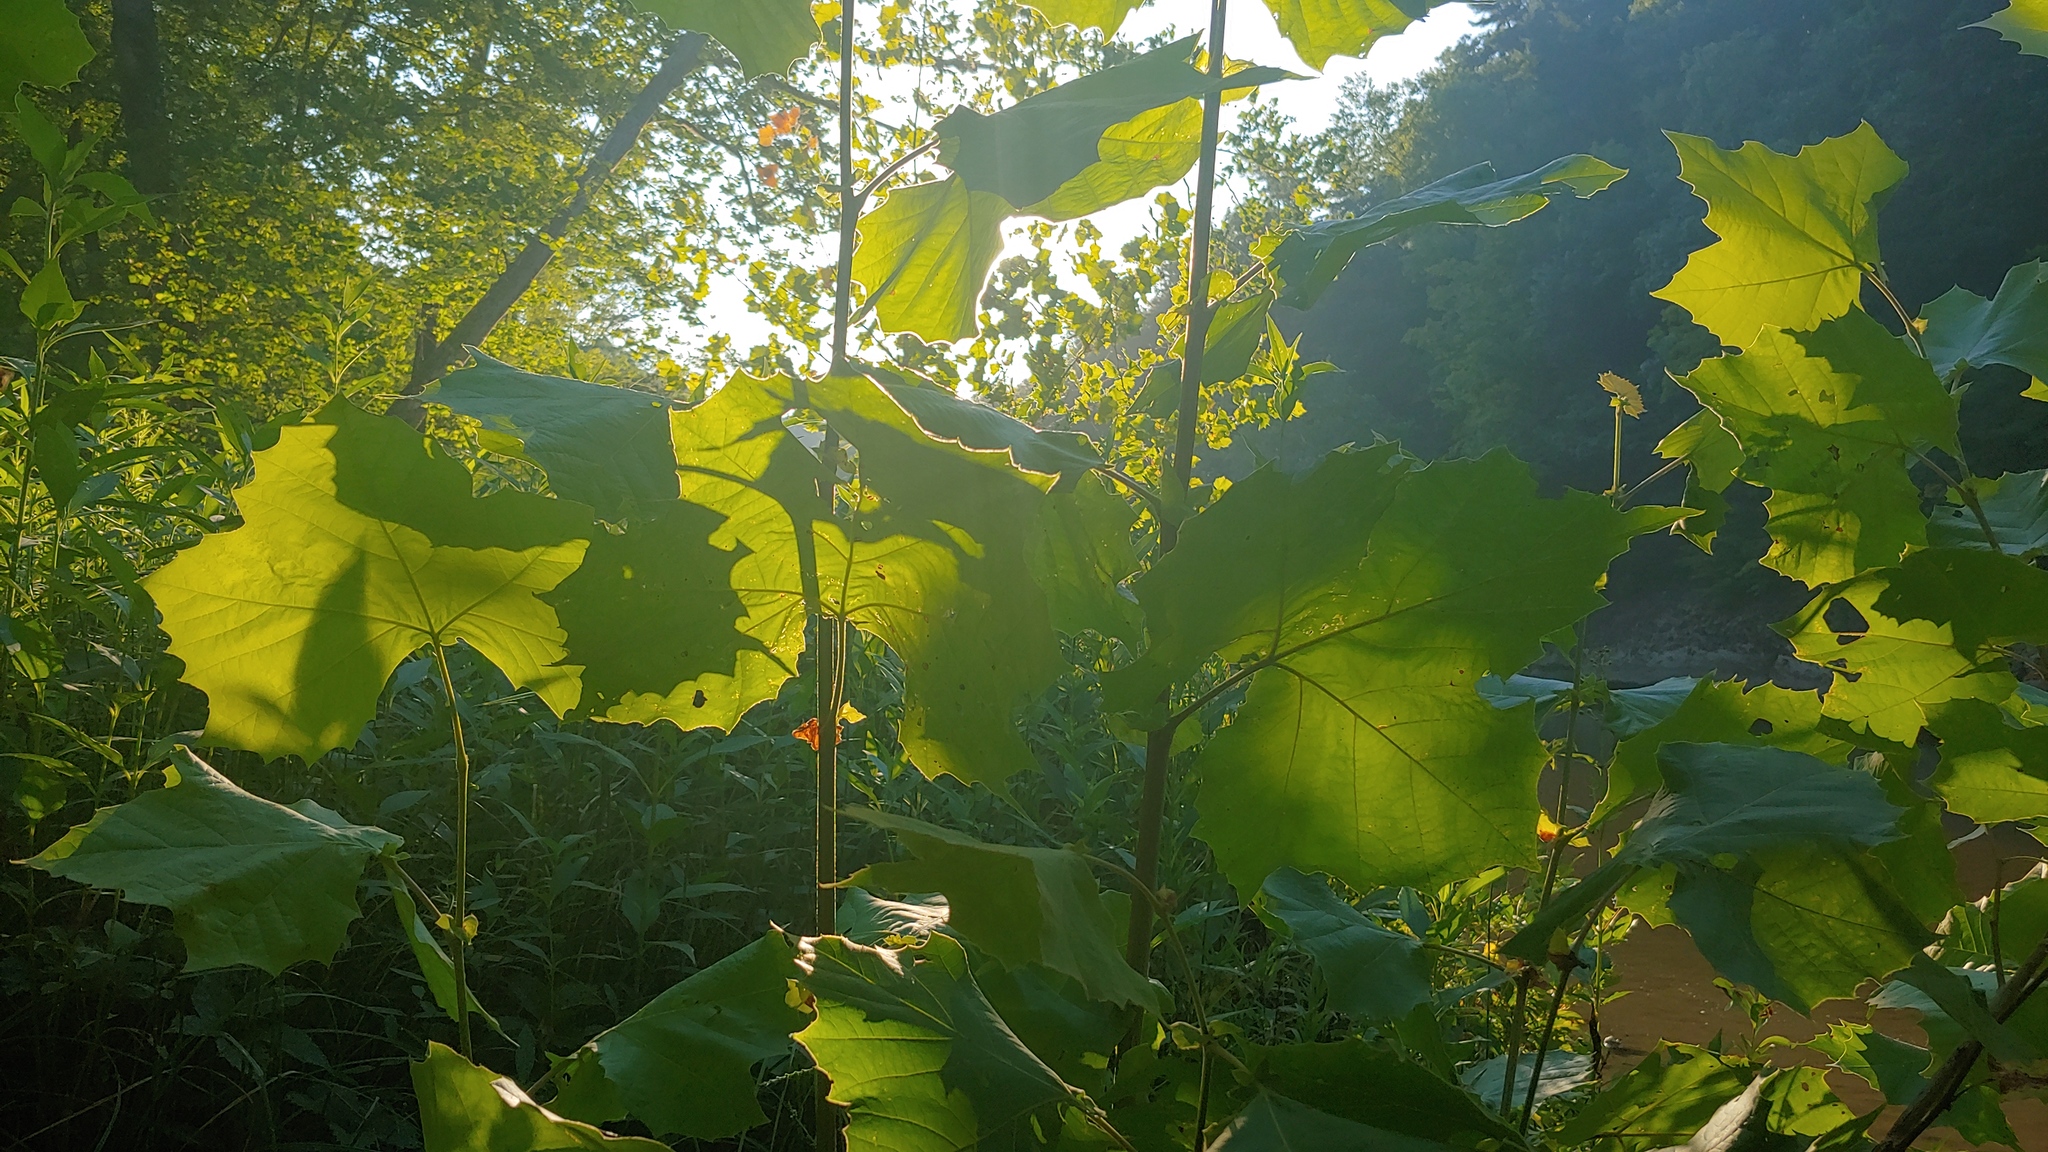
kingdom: Plantae
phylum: Tracheophyta
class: Magnoliopsida
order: Proteales
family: Platanaceae
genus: Platanus
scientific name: Platanus occidentalis
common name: American sycamore
